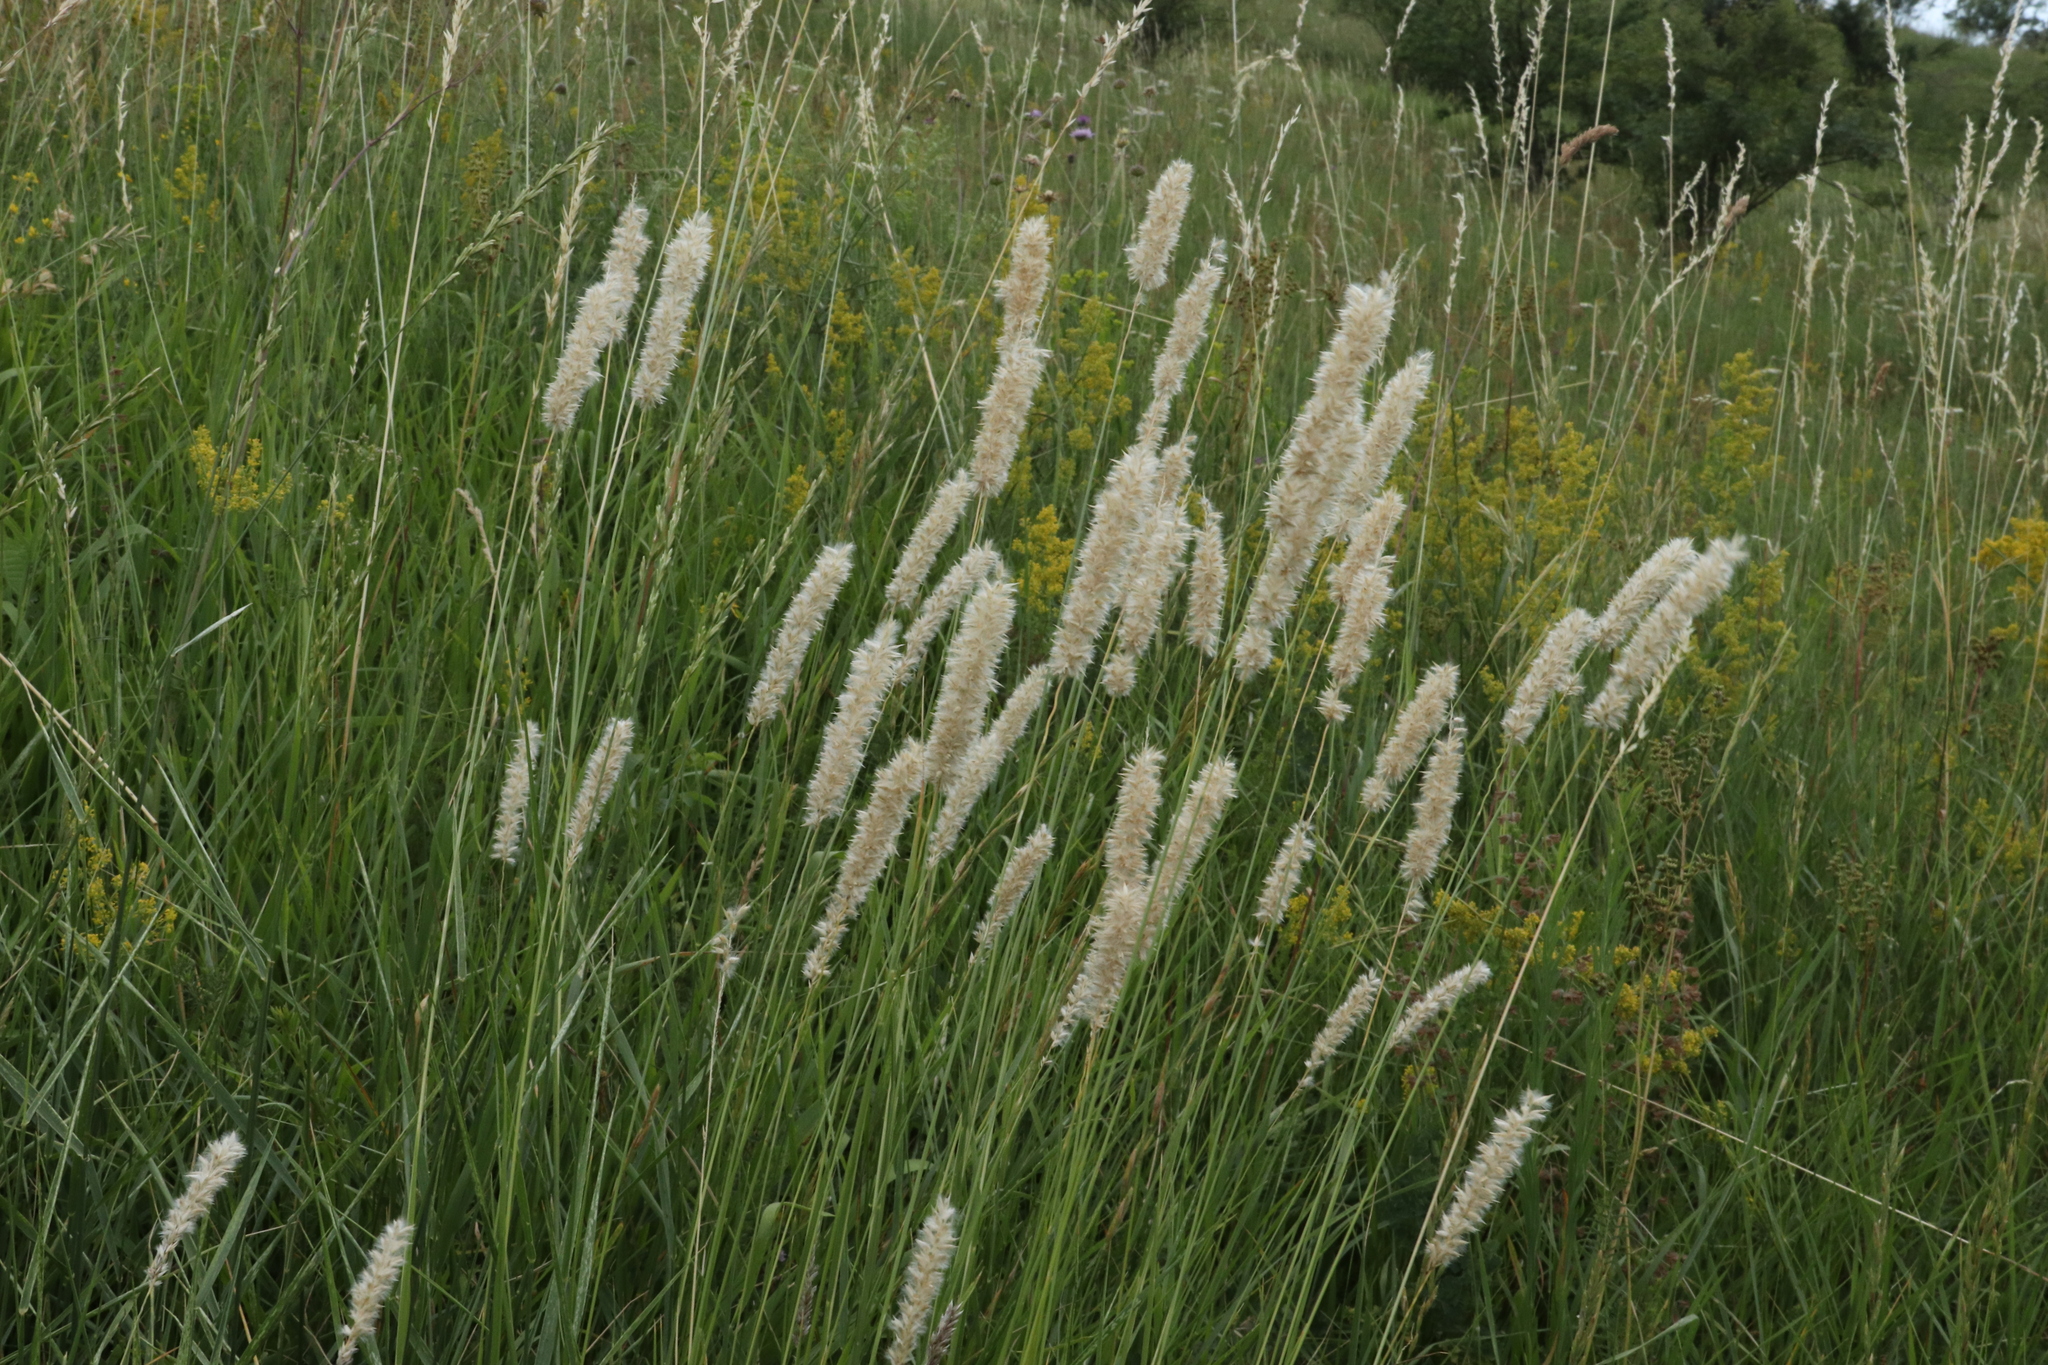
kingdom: Plantae
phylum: Tracheophyta
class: Liliopsida
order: Poales
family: Poaceae
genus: Melica
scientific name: Melica transsilvanica
